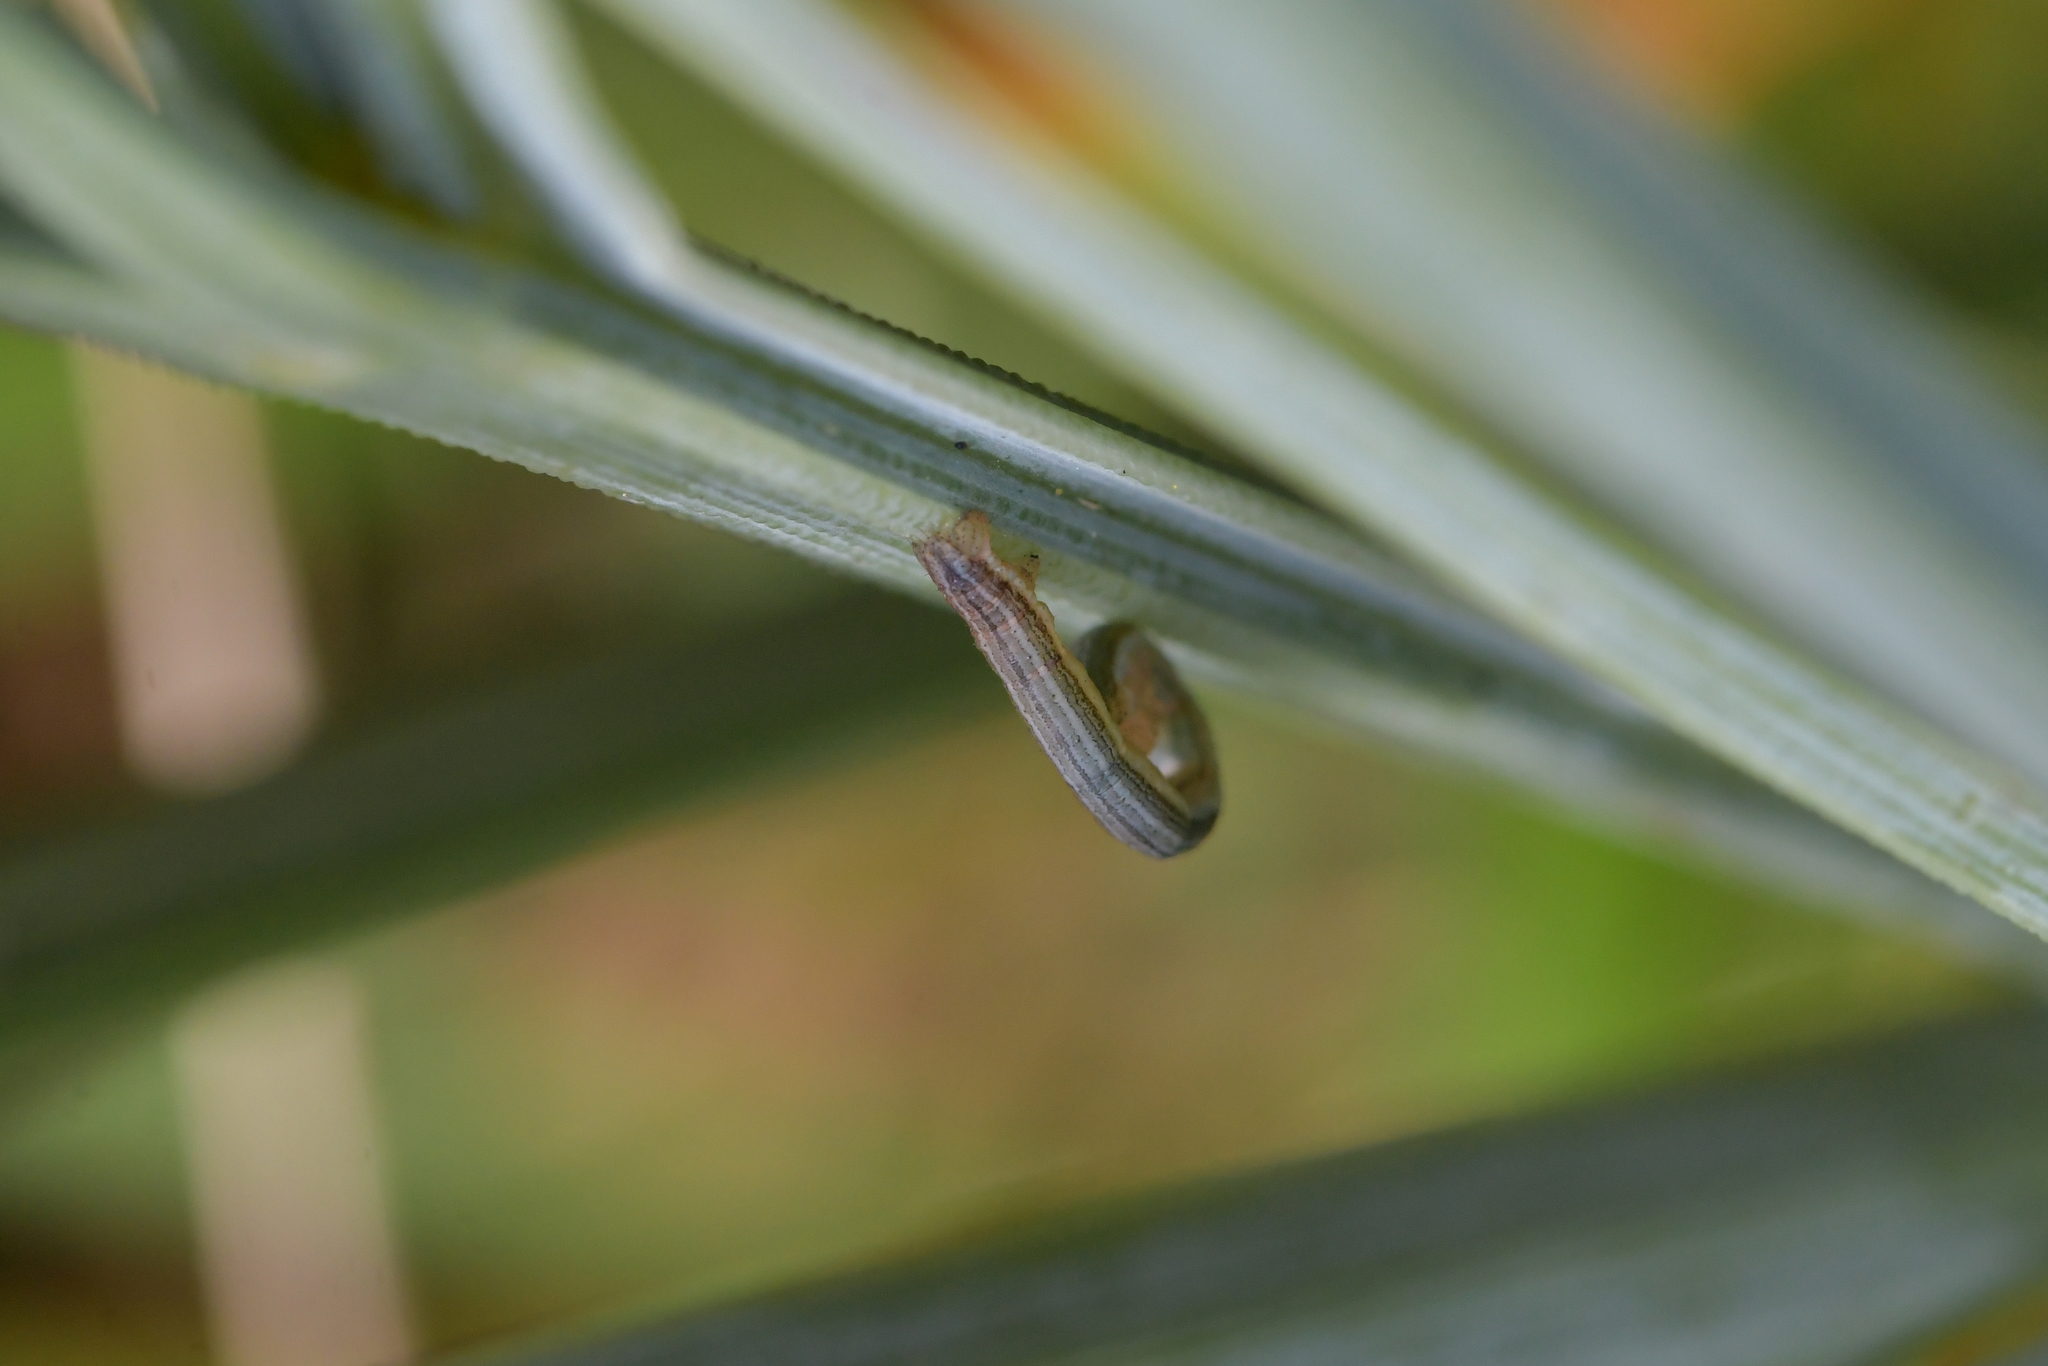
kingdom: Plantae
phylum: Tracheophyta
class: Magnoliopsida
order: Apiales
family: Apiaceae
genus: Aciphylla
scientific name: Aciphylla squarrosa
